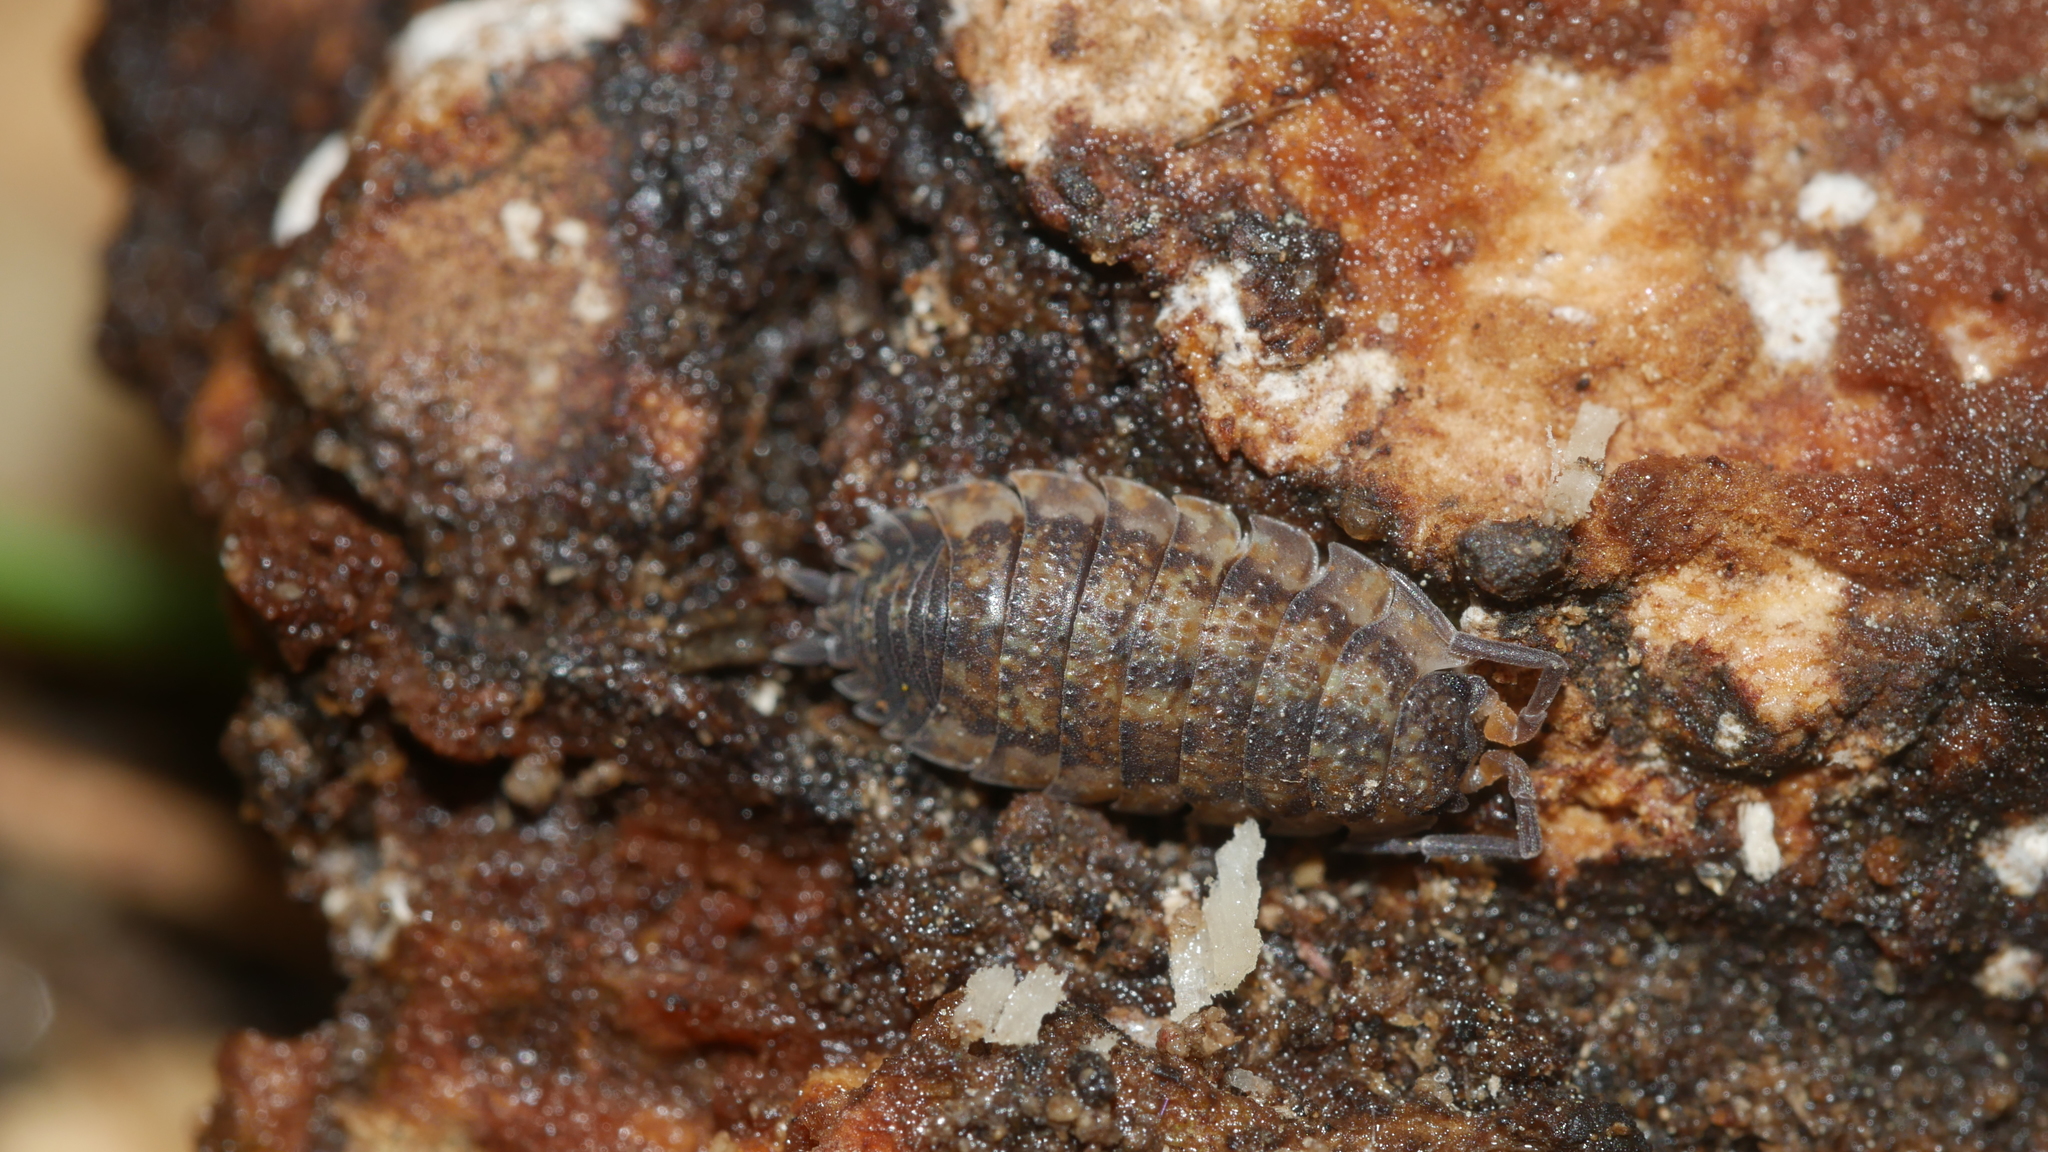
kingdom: Animalia
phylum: Arthropoda
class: Malacostraca
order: Isopoda
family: Porcellionidae
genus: Porcellio
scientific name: Porcellio scaber
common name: Common rough woodlouse
